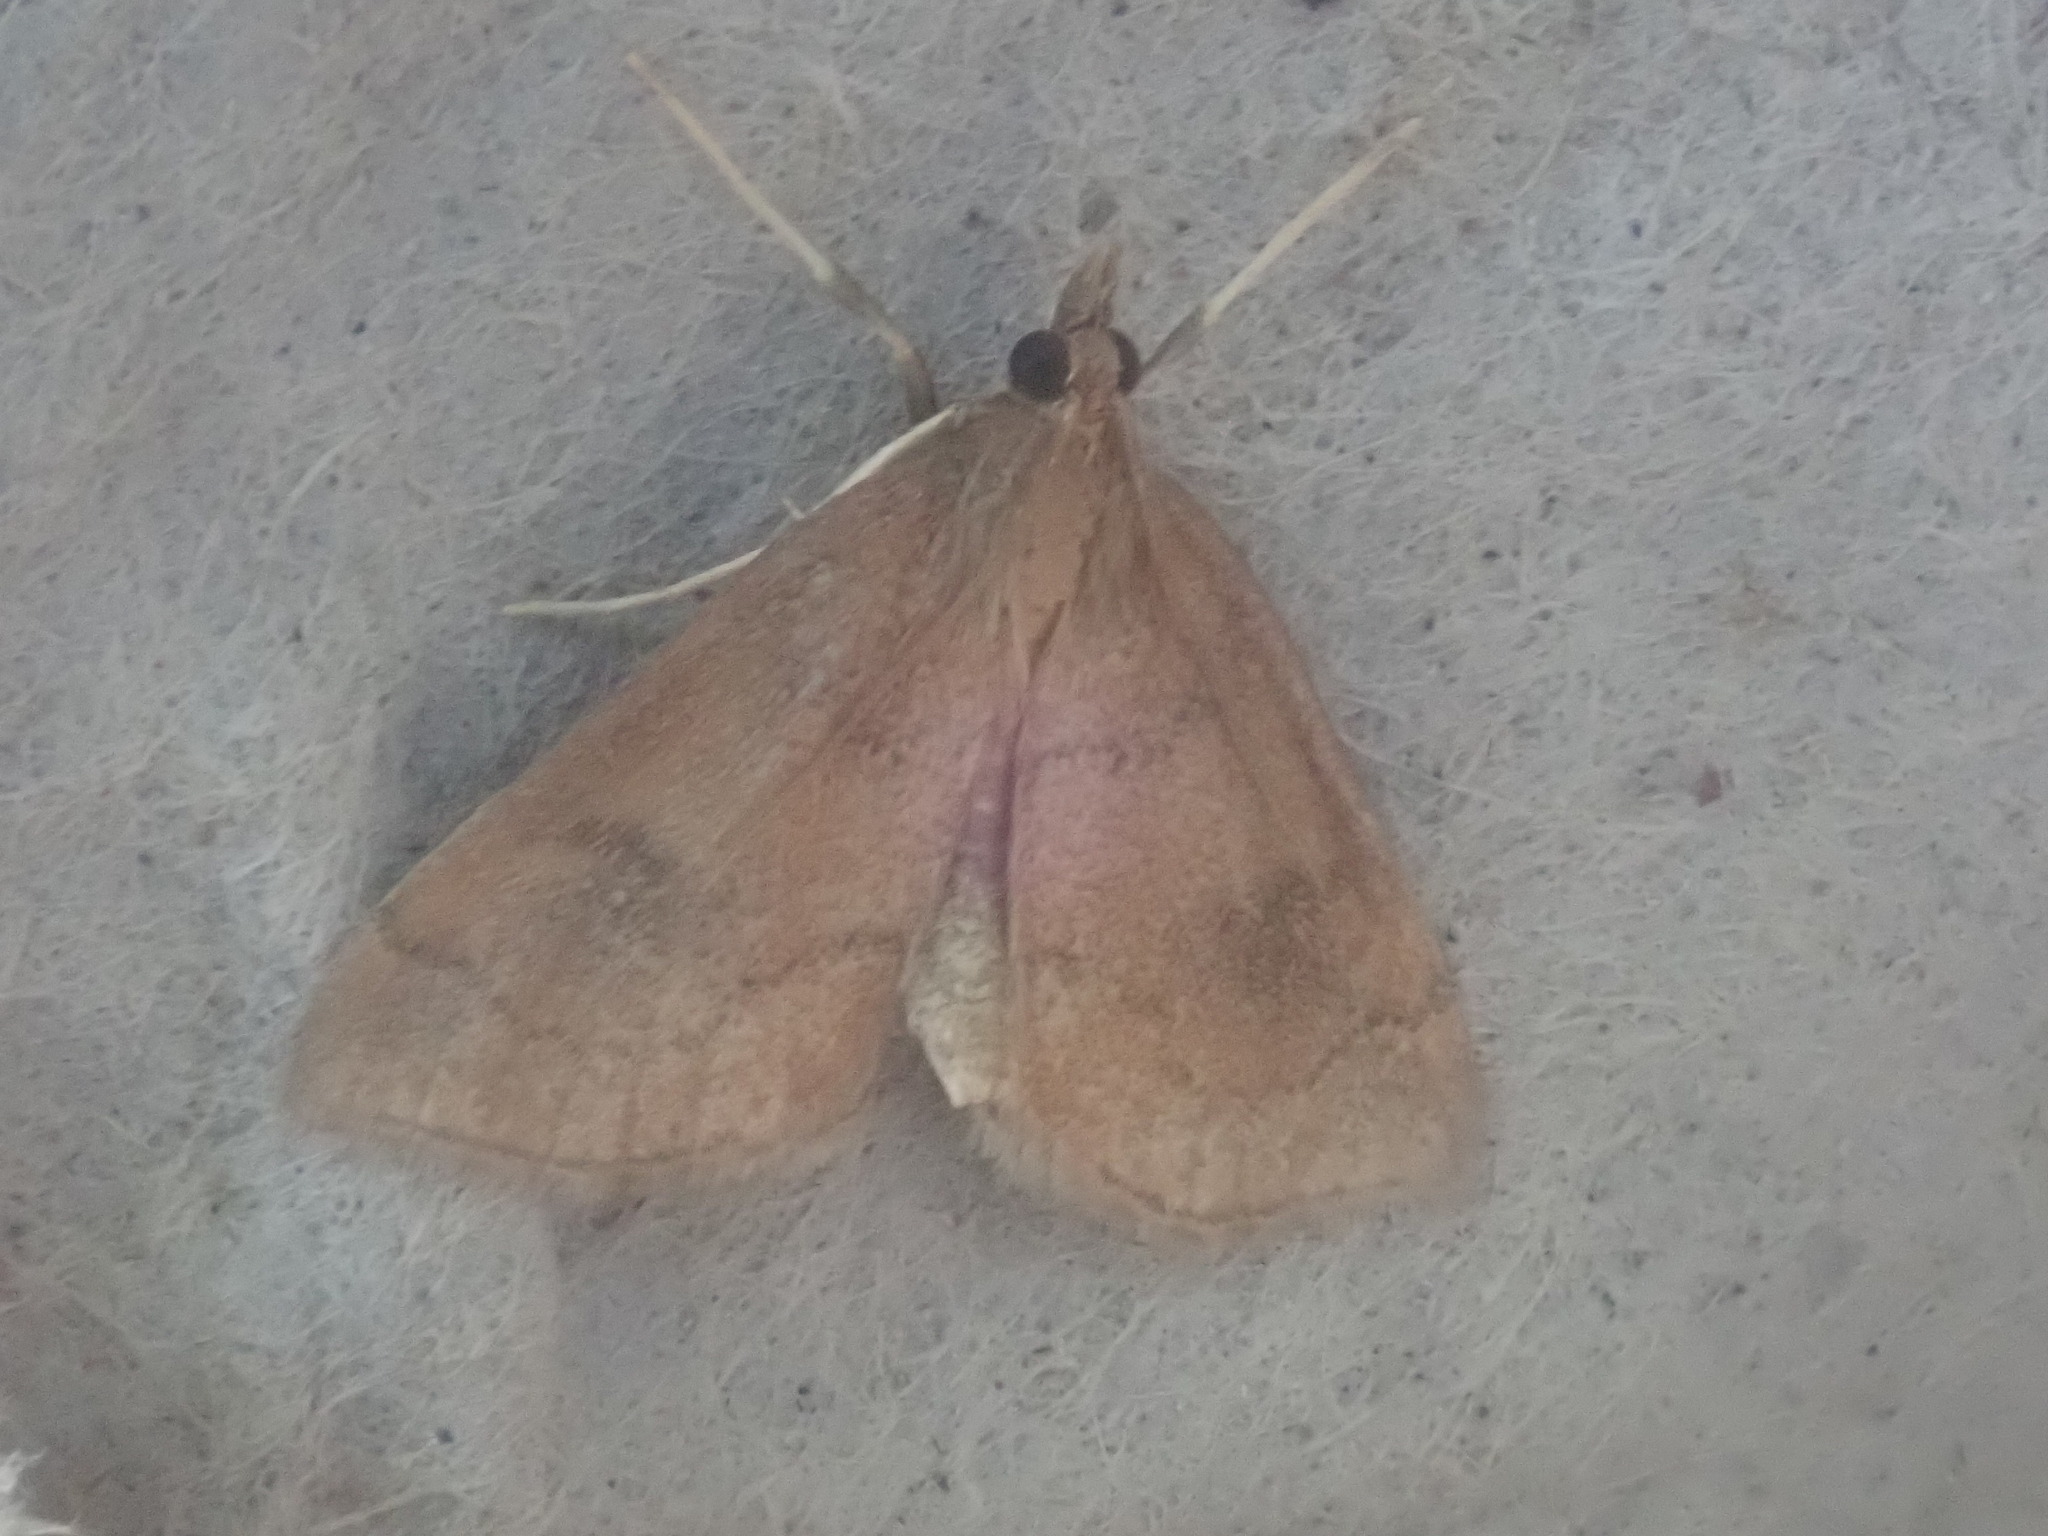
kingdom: Animalia
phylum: Arthropoda
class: Insecta
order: Lepidoptera
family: Crambidae
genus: Fumibotys
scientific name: Fumibotys fumalis
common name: Mint root borer moth
